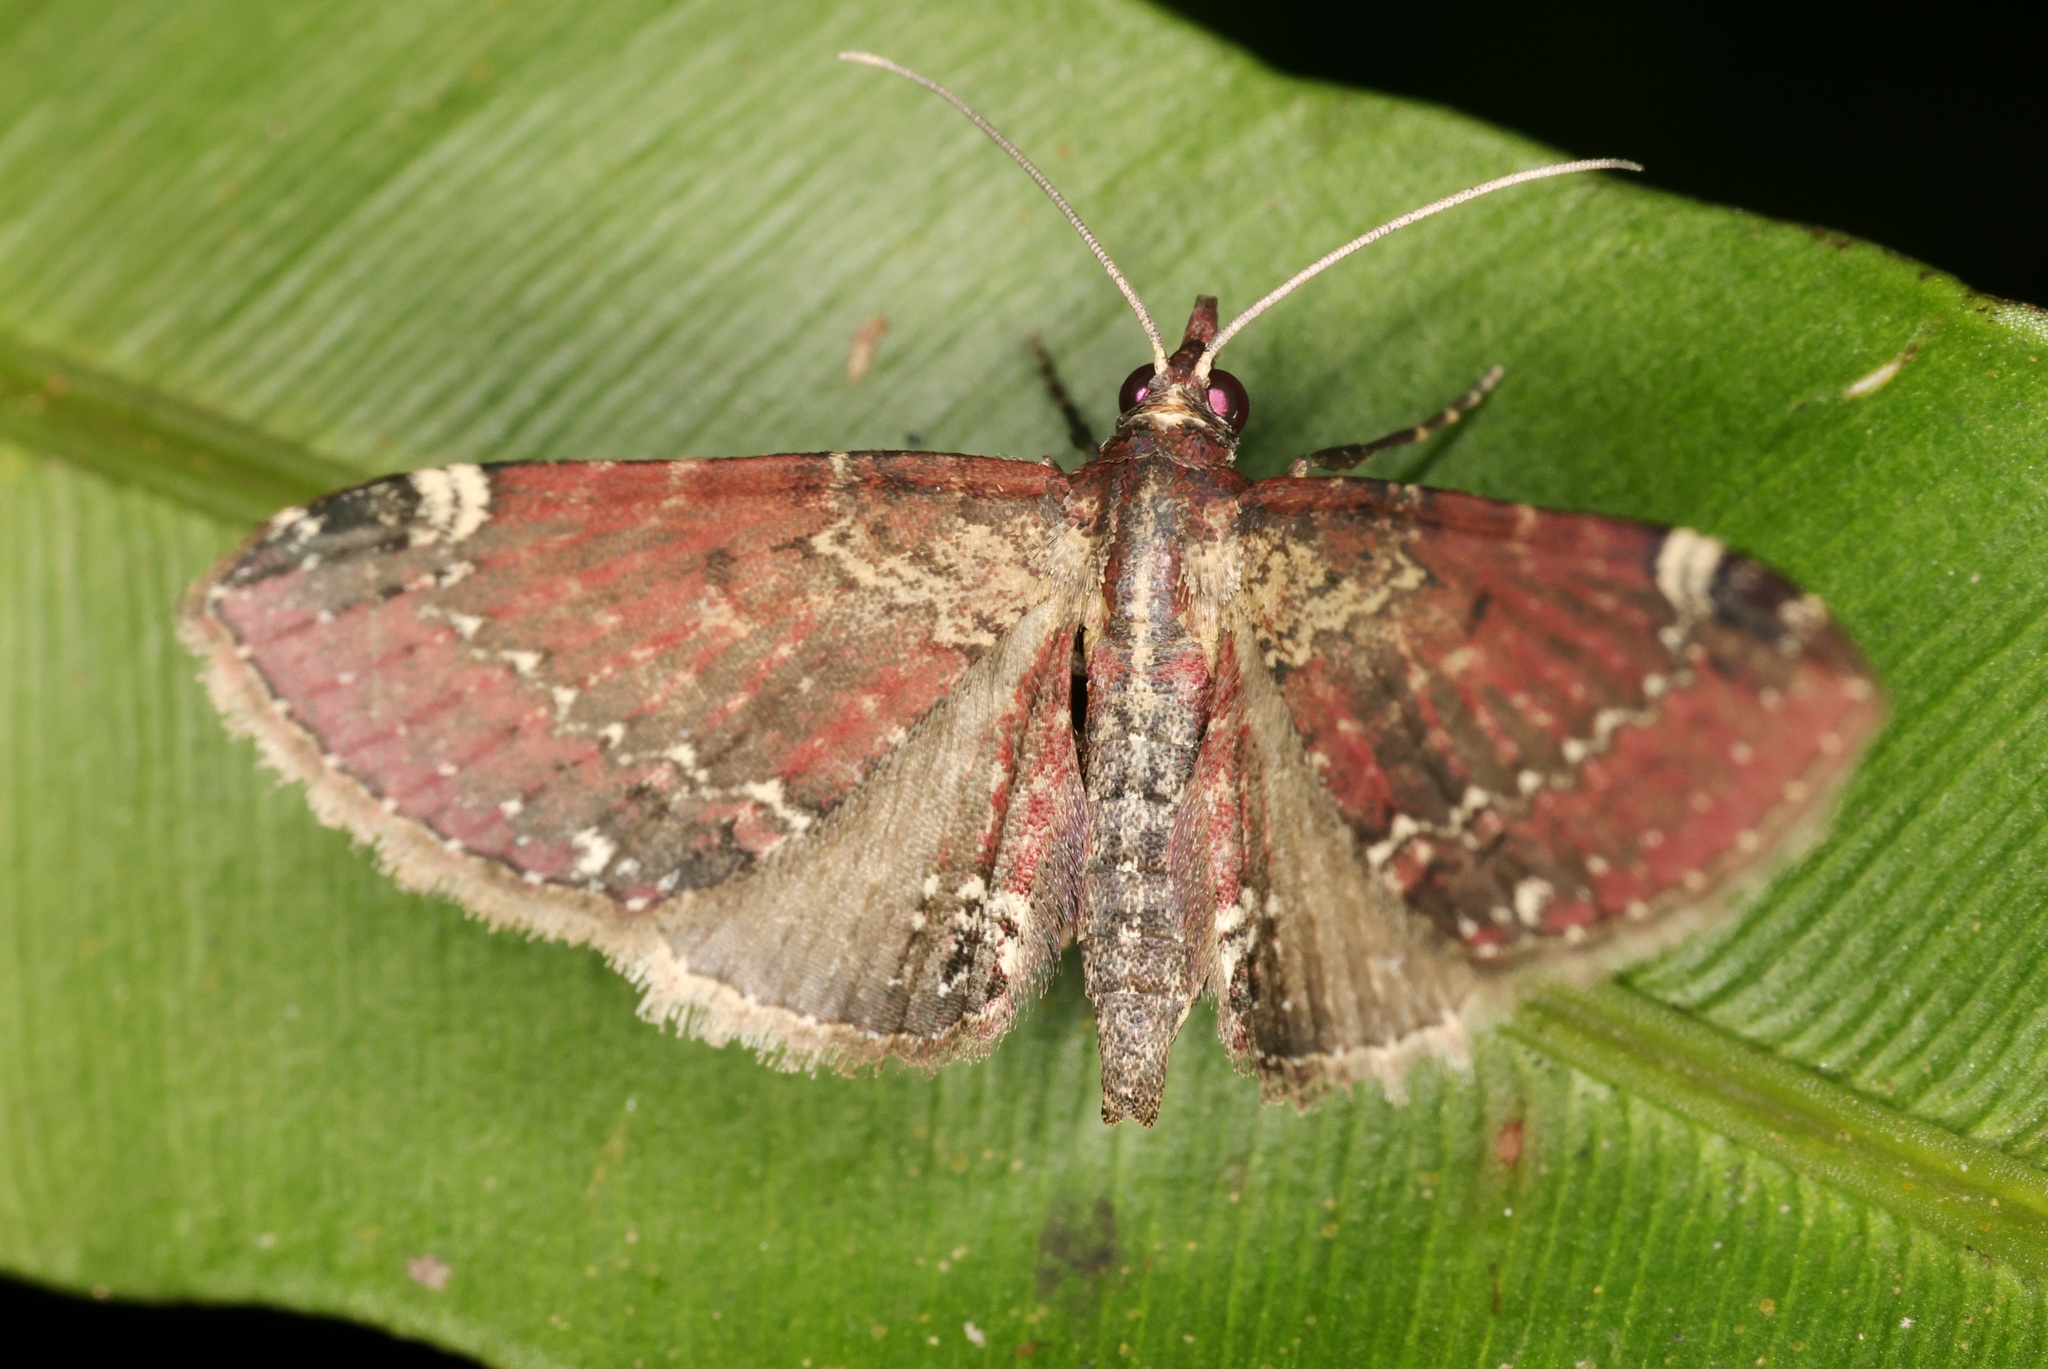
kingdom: Animalia
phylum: Arthropoda
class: Insecta
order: Lepidoptera
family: Geometridae
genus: Eupithecia
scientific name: Eupithecia rigida
